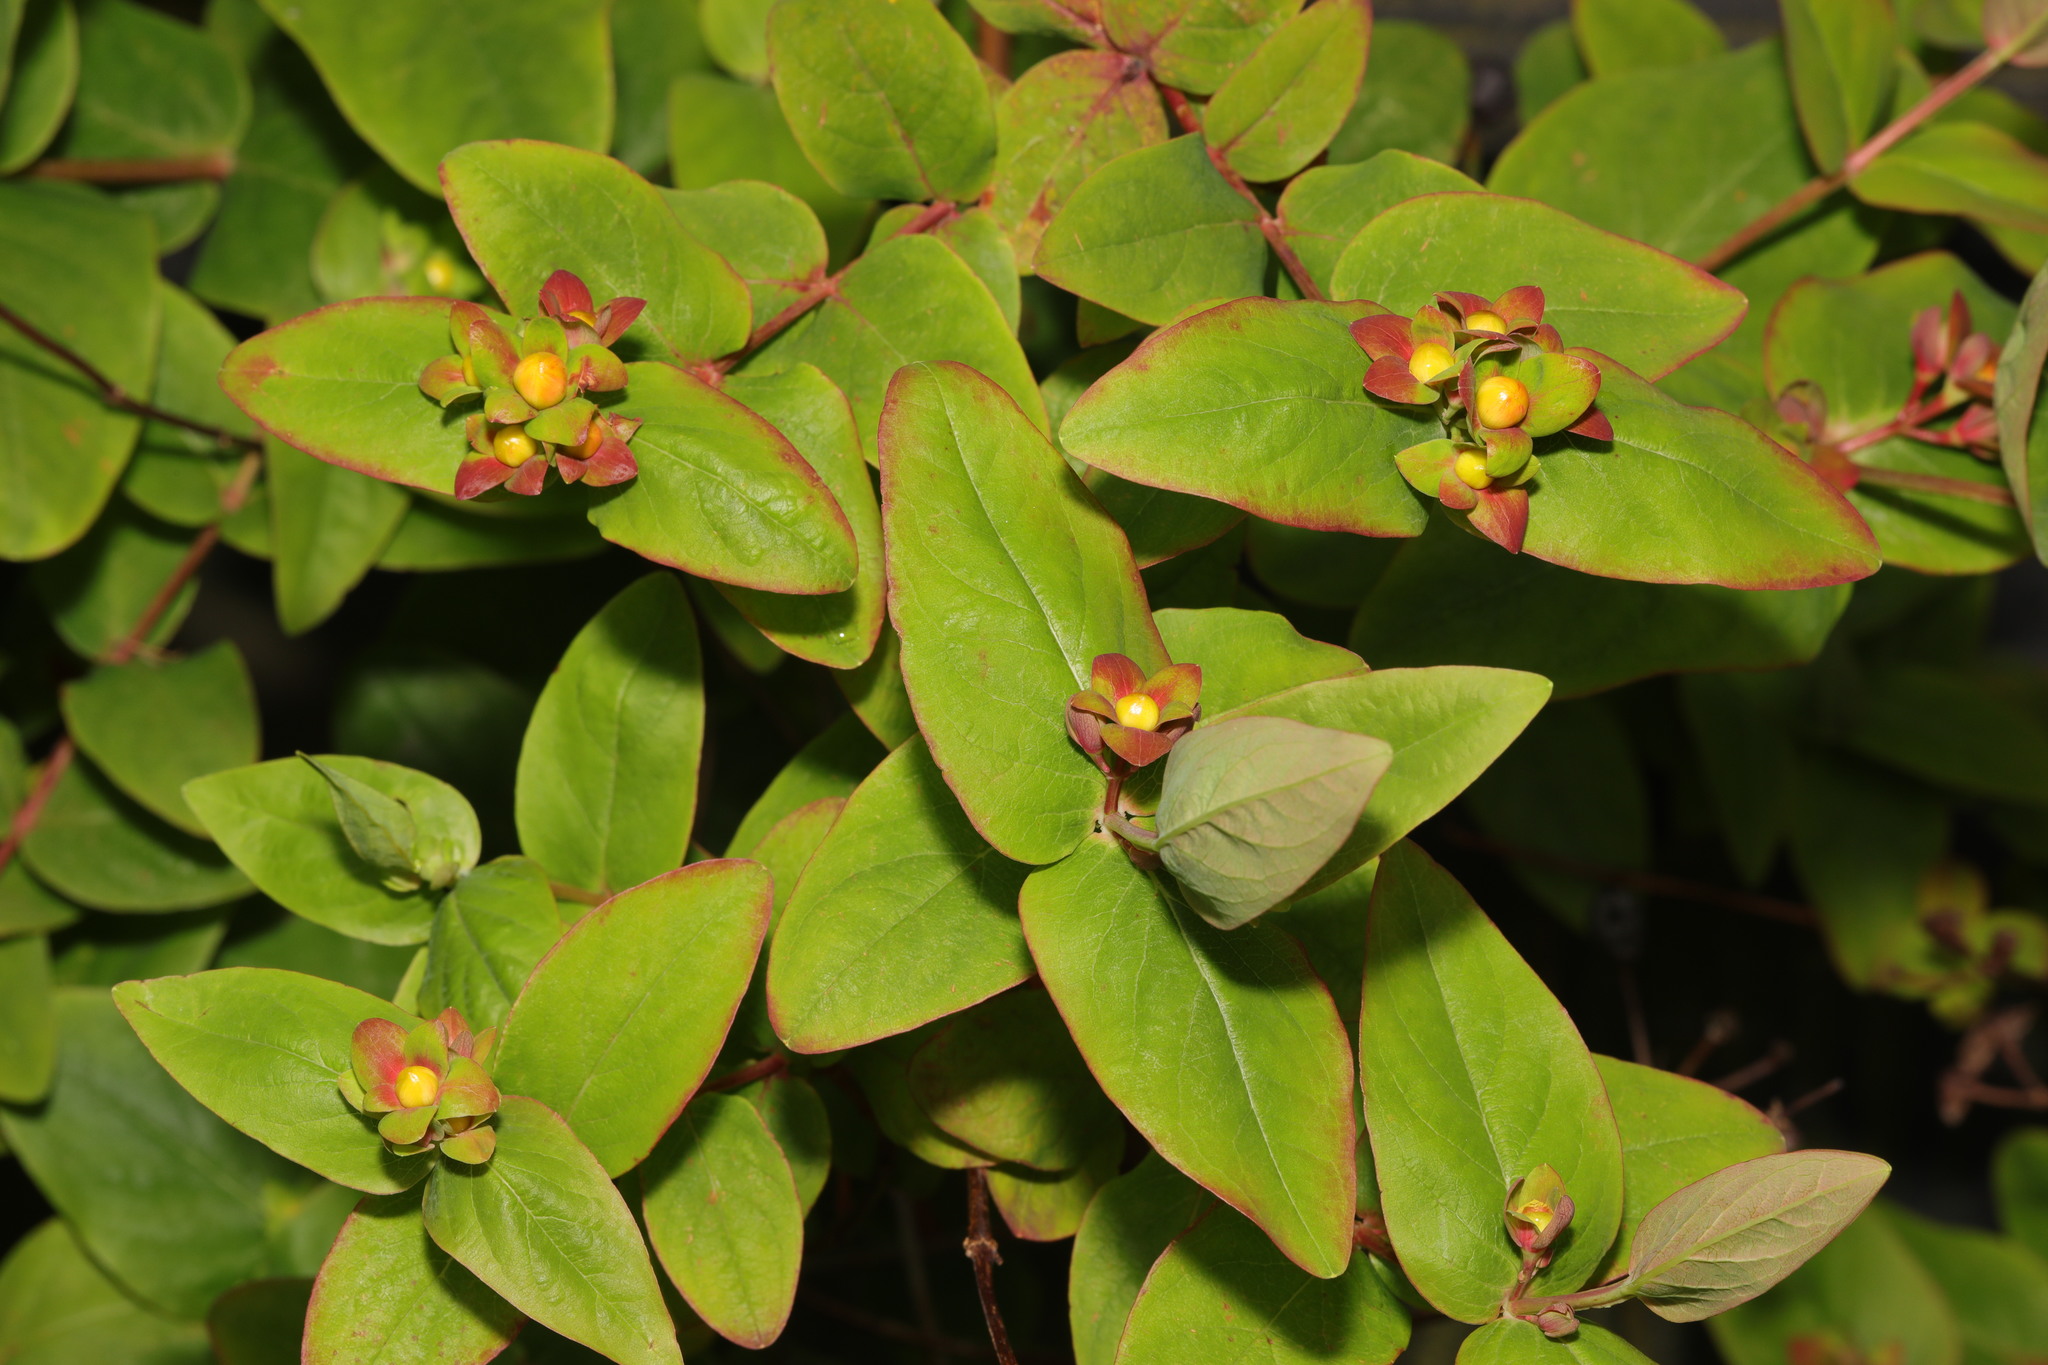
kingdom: Plantae
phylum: Tracheophyta
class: Magnoliopsida
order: Malpighiales
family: Hypericaceae
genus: Hypericum
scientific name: Hypericum androsaemum
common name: Sweet-amber
